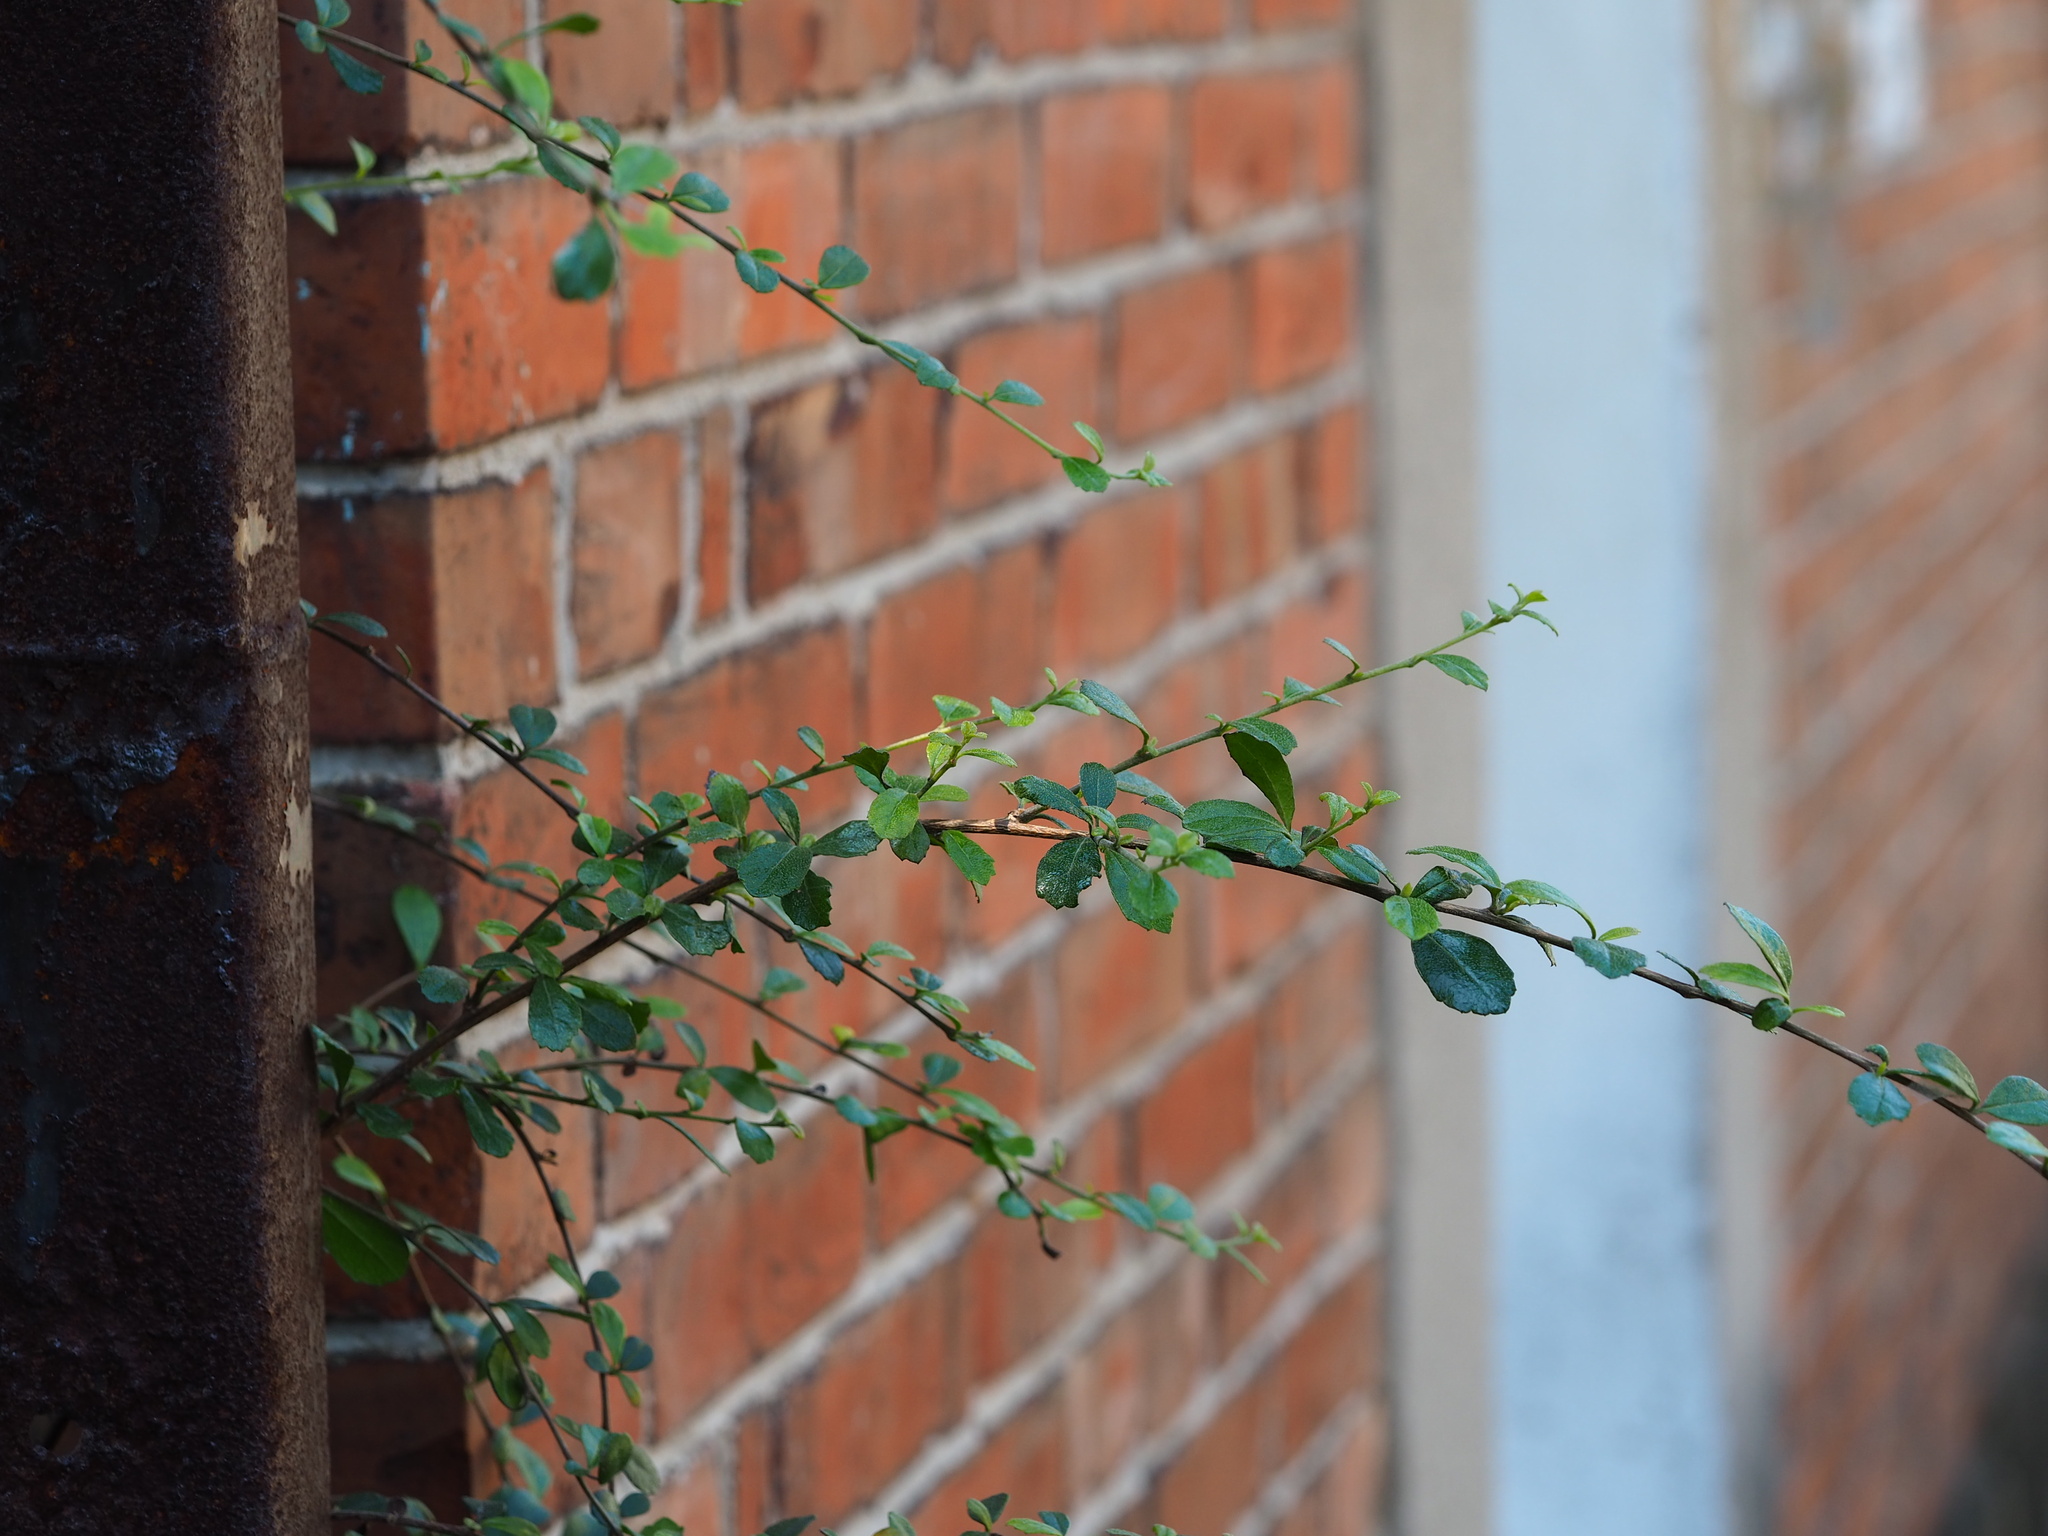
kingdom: Plantae
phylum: Tracheophyta
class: Magnoliopsida
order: Boraginales
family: Ehretiaceae
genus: Ehretia
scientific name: Ehretia microphylla
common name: Fukien-tea
